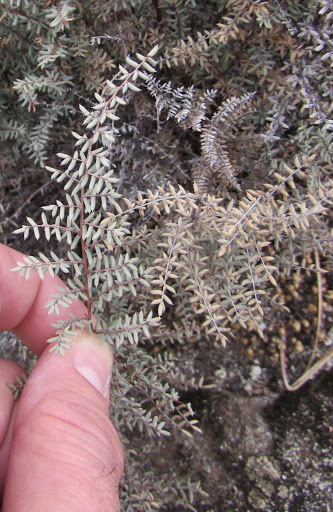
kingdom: Plantae
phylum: Tracheophyta
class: Polypodiopsida
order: Polypodiales
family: Pteridaceae
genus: Pellaea
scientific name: Pellaea mucronata
